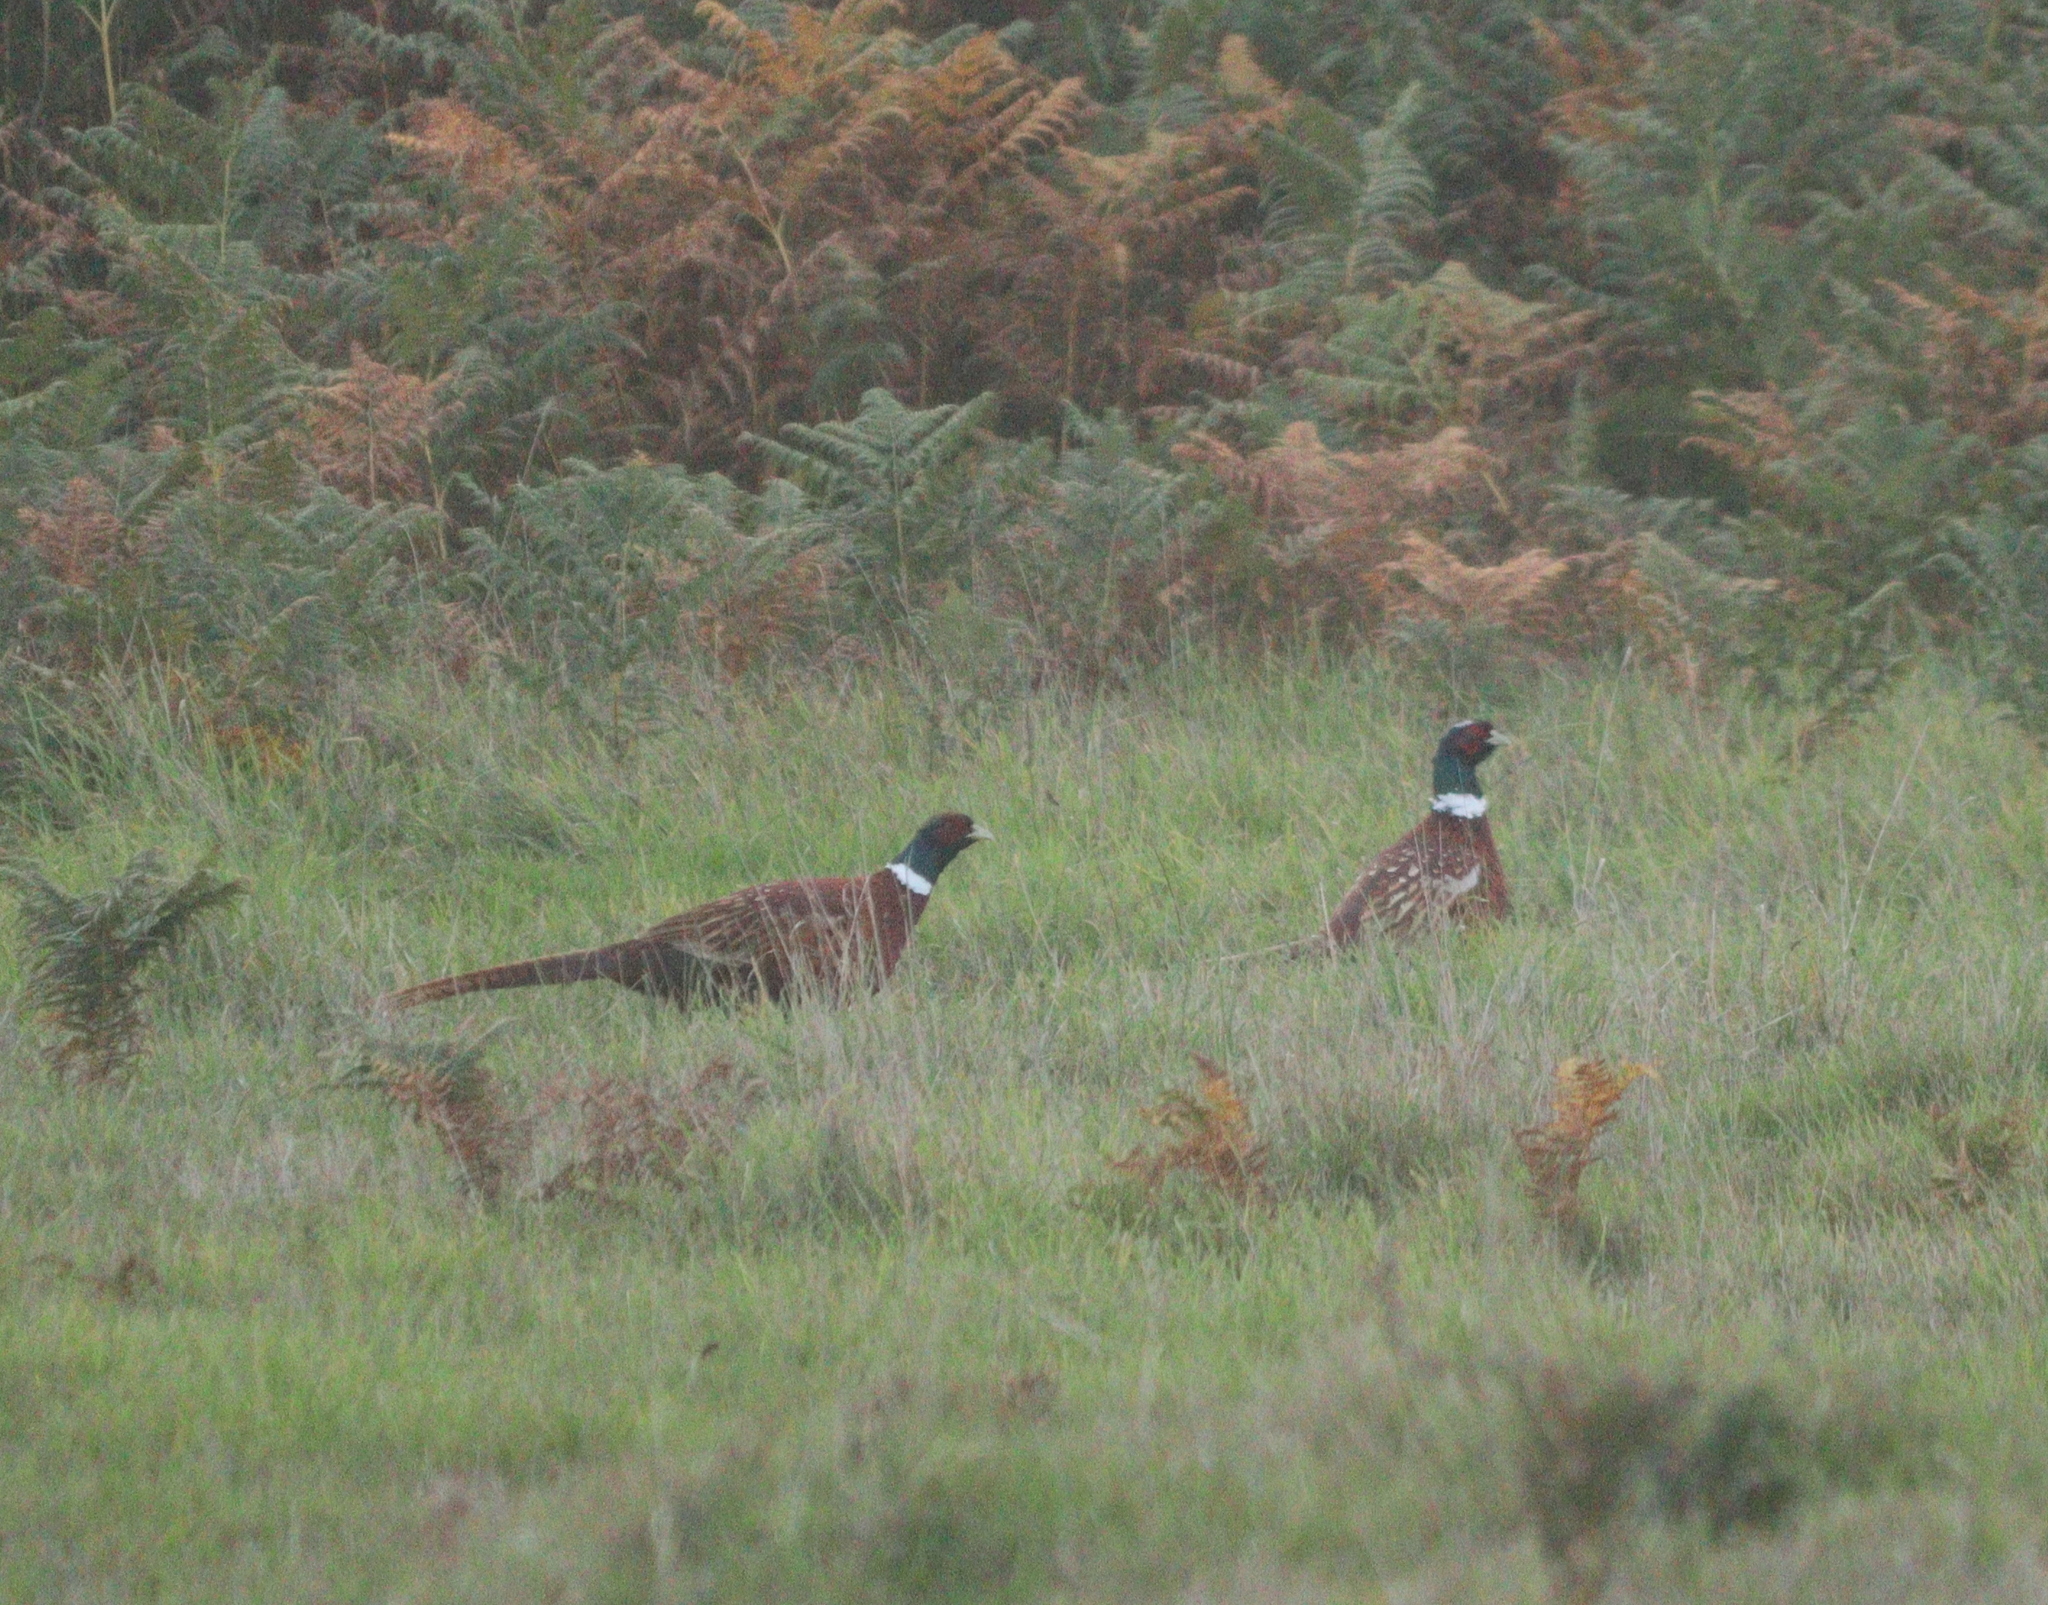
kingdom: Animalia
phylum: Chordata
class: Aves
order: Galliformes
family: Phasianidae
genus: Phasianus
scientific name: Phasianus colchicus
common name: Common pheasant
